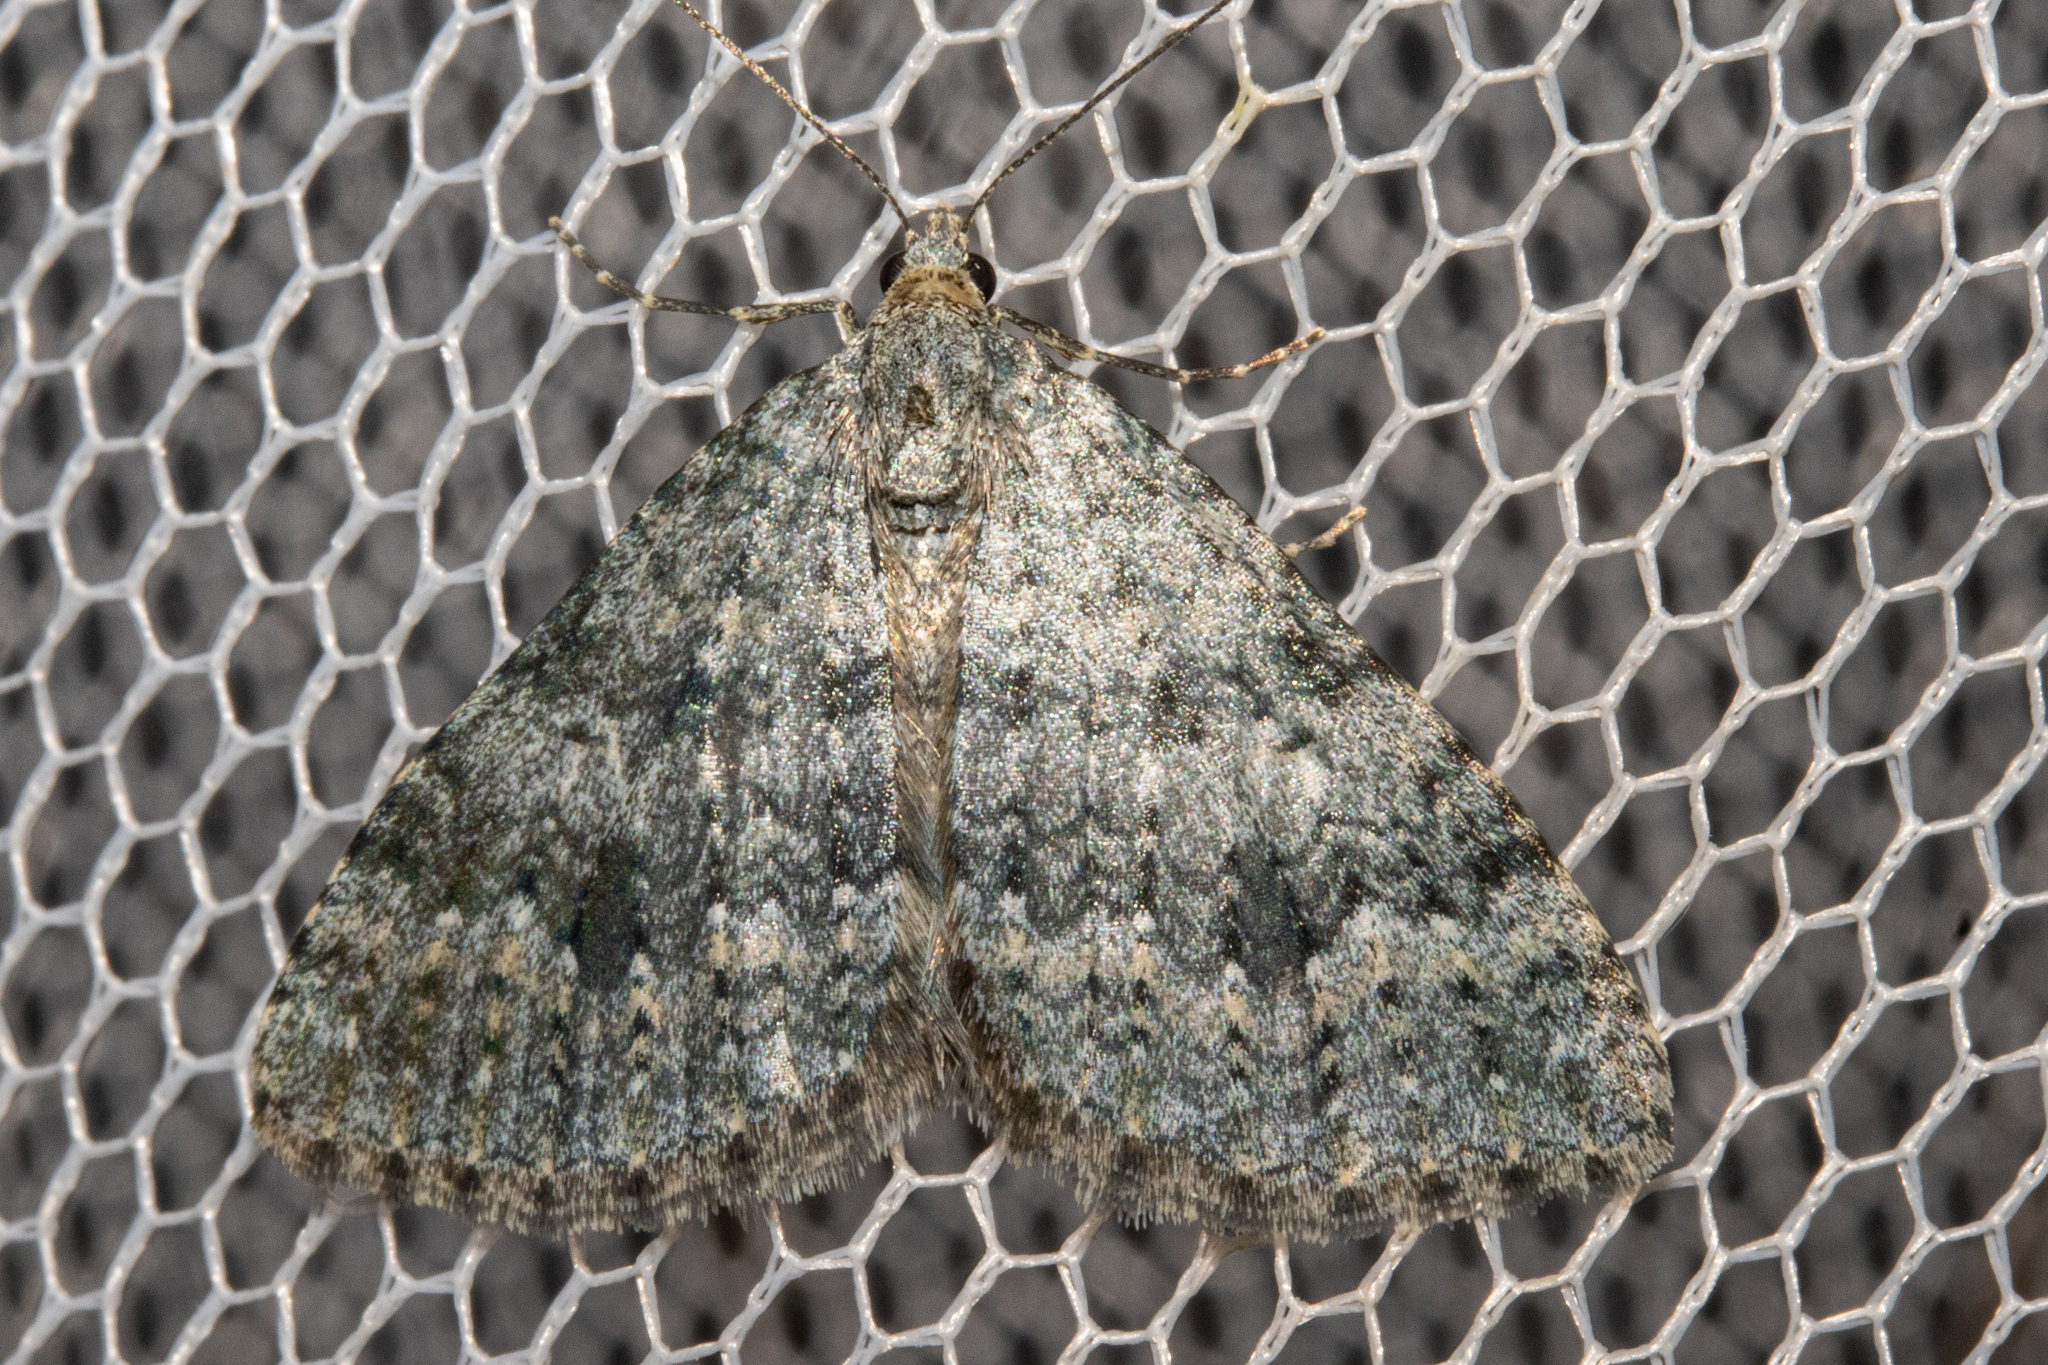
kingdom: Animalia
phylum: Arthropoda
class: Insecta
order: Lepidoptera
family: Geometridae
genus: Helastia
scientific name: Helastia corcularia
